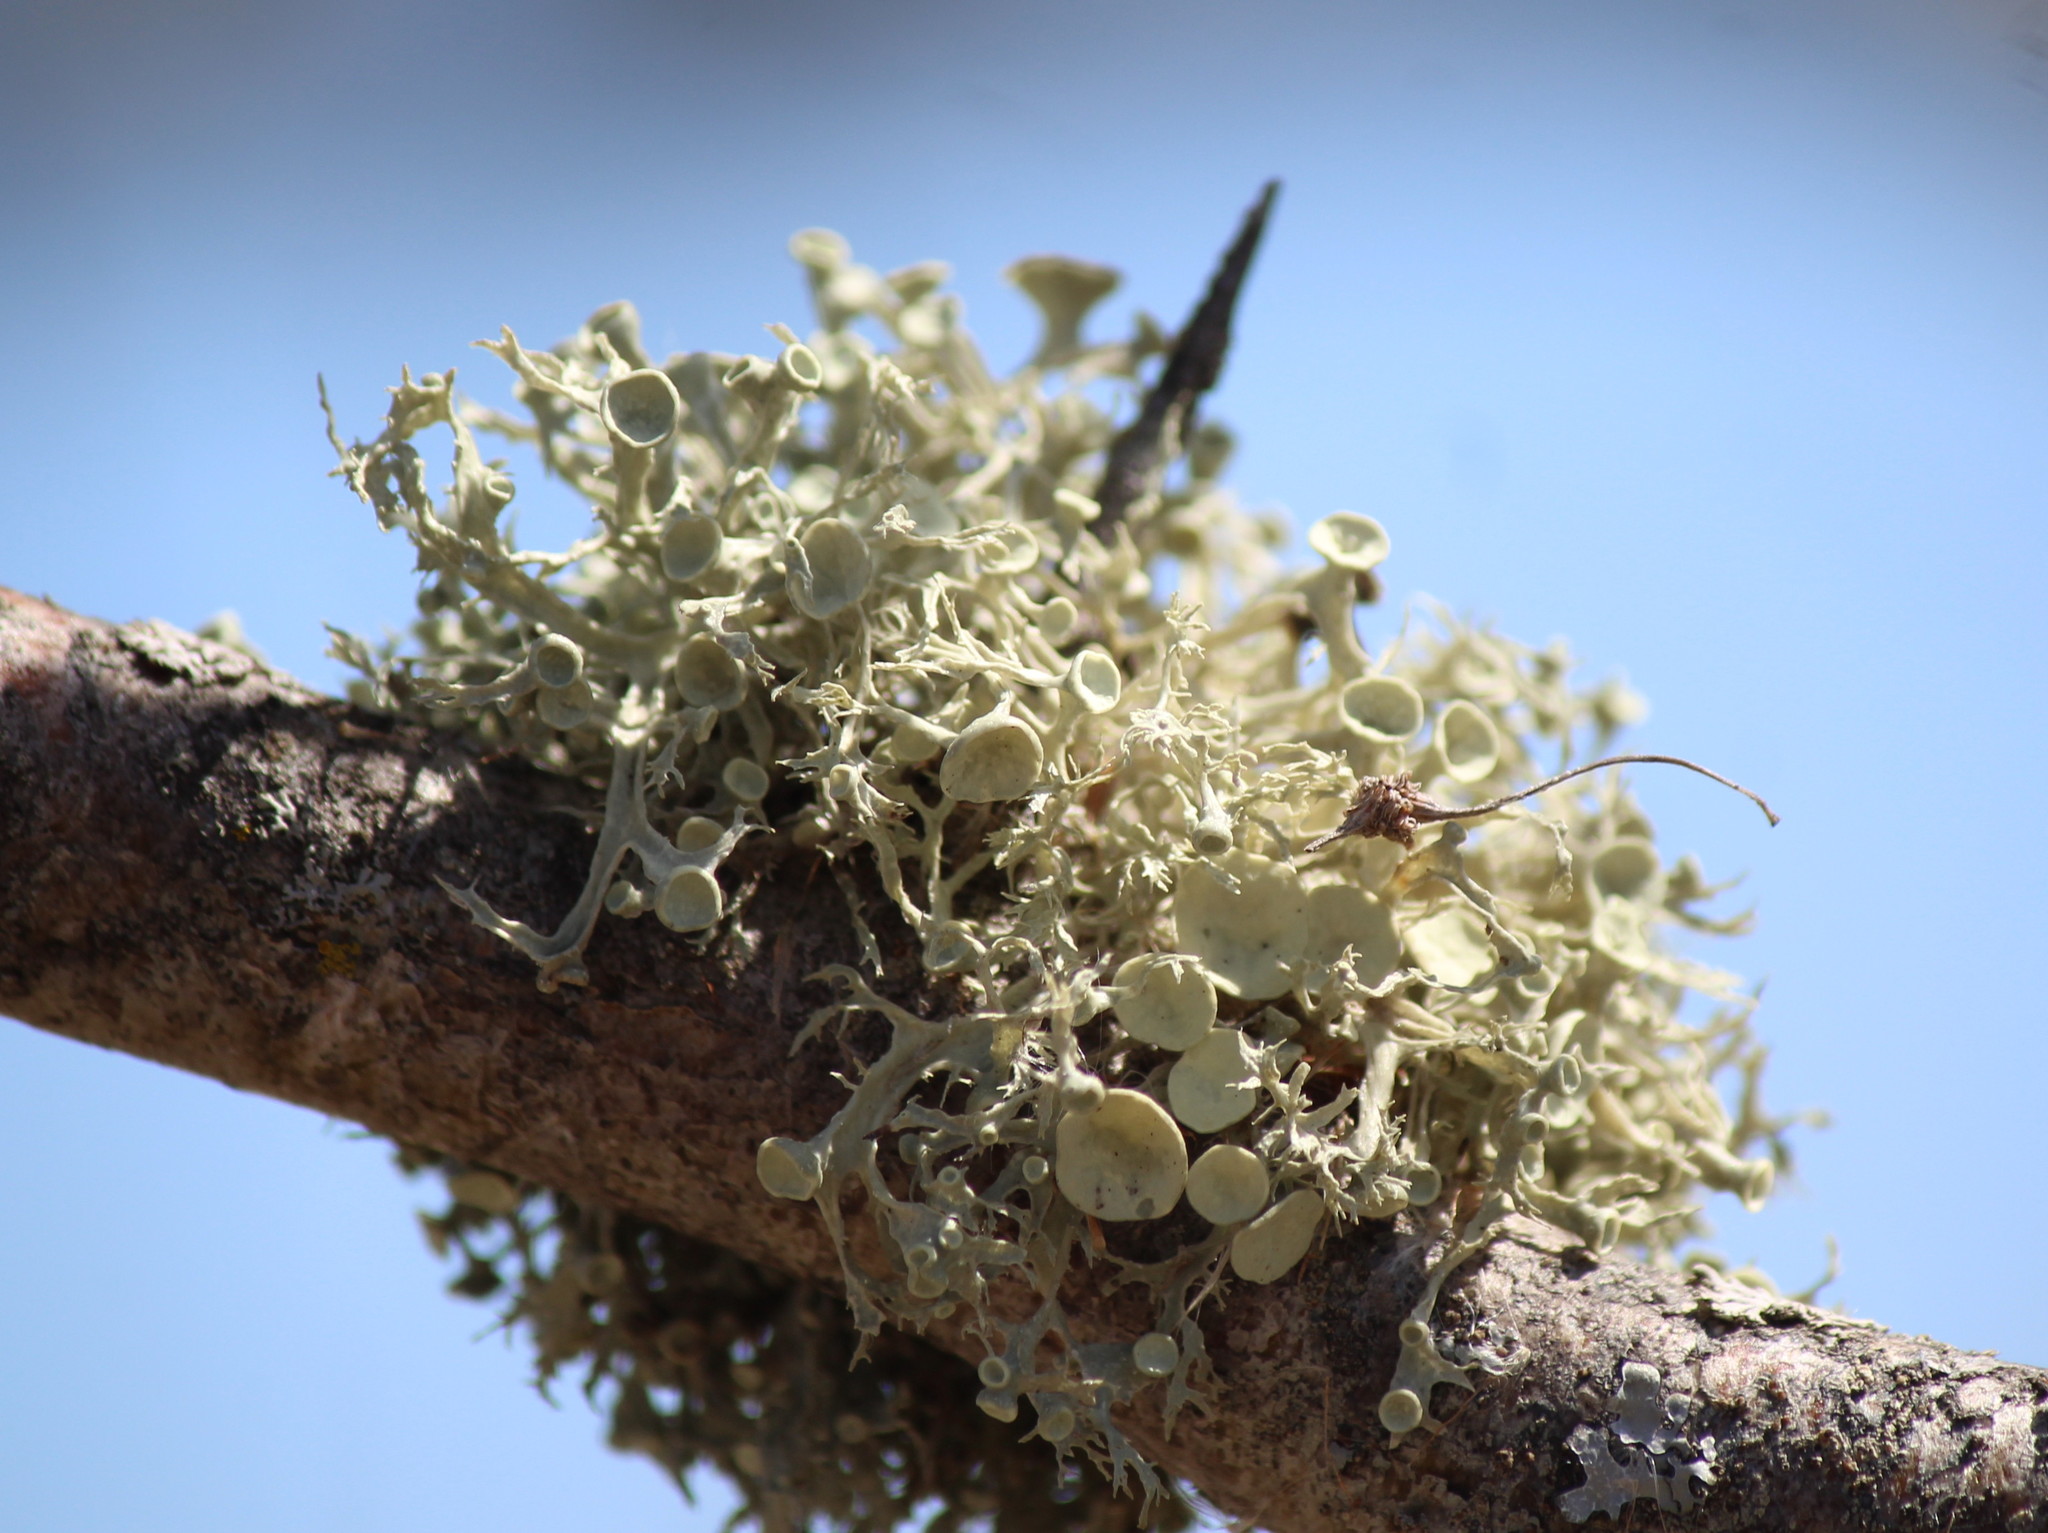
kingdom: Fungi
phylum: Ascomycota
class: Lecanoromycetes
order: Lecanorales
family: Ramalinaceae
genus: Ramalina
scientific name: Ramalina americana
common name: Sinewed bush lichen
